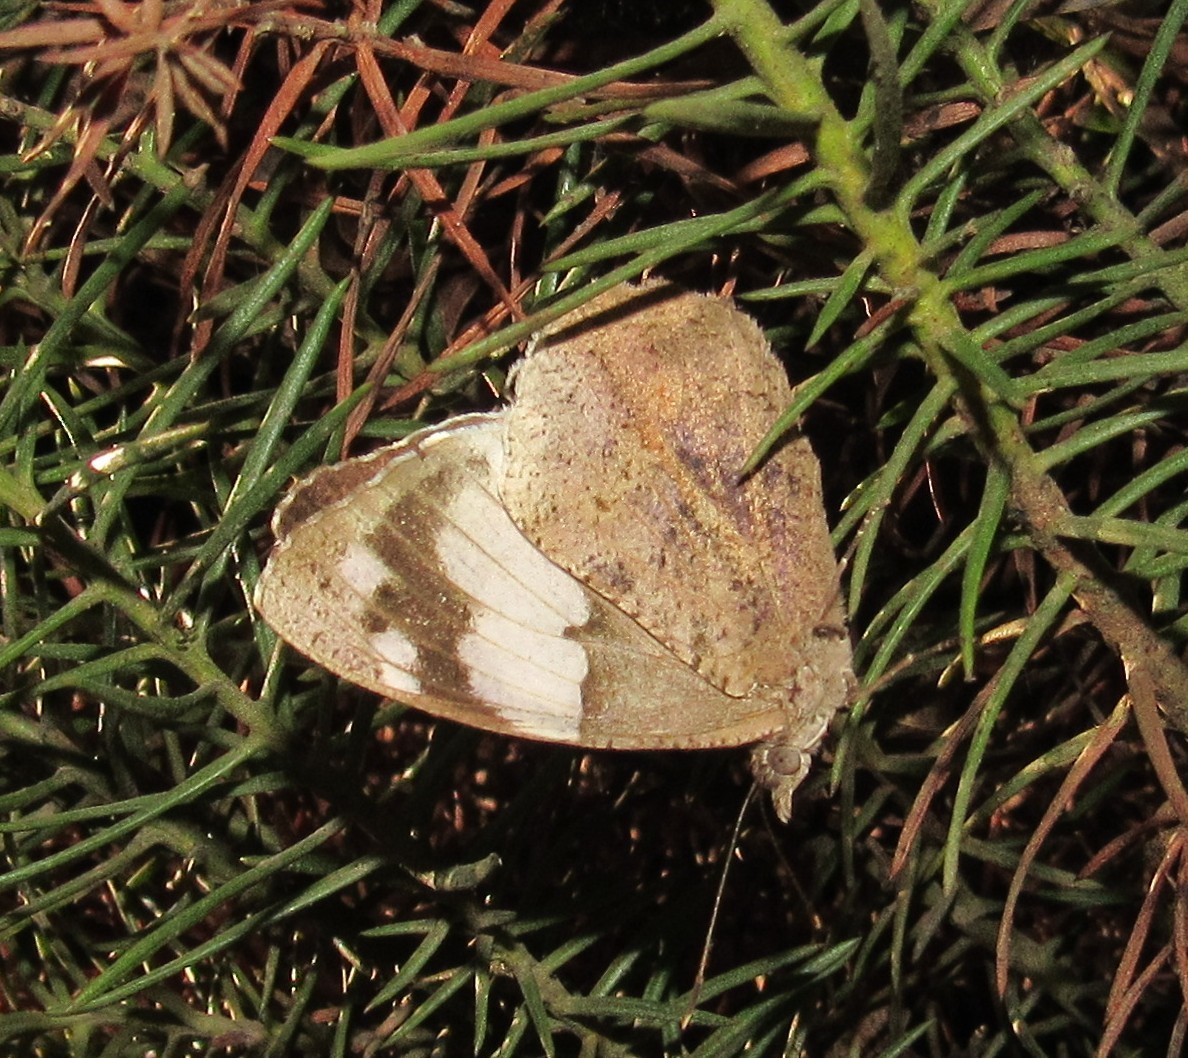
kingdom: Animalia
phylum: Arthropoda
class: Insecta
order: Lepidoptera
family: Nymphalidae
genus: Eunica
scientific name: Eunica eburnea
